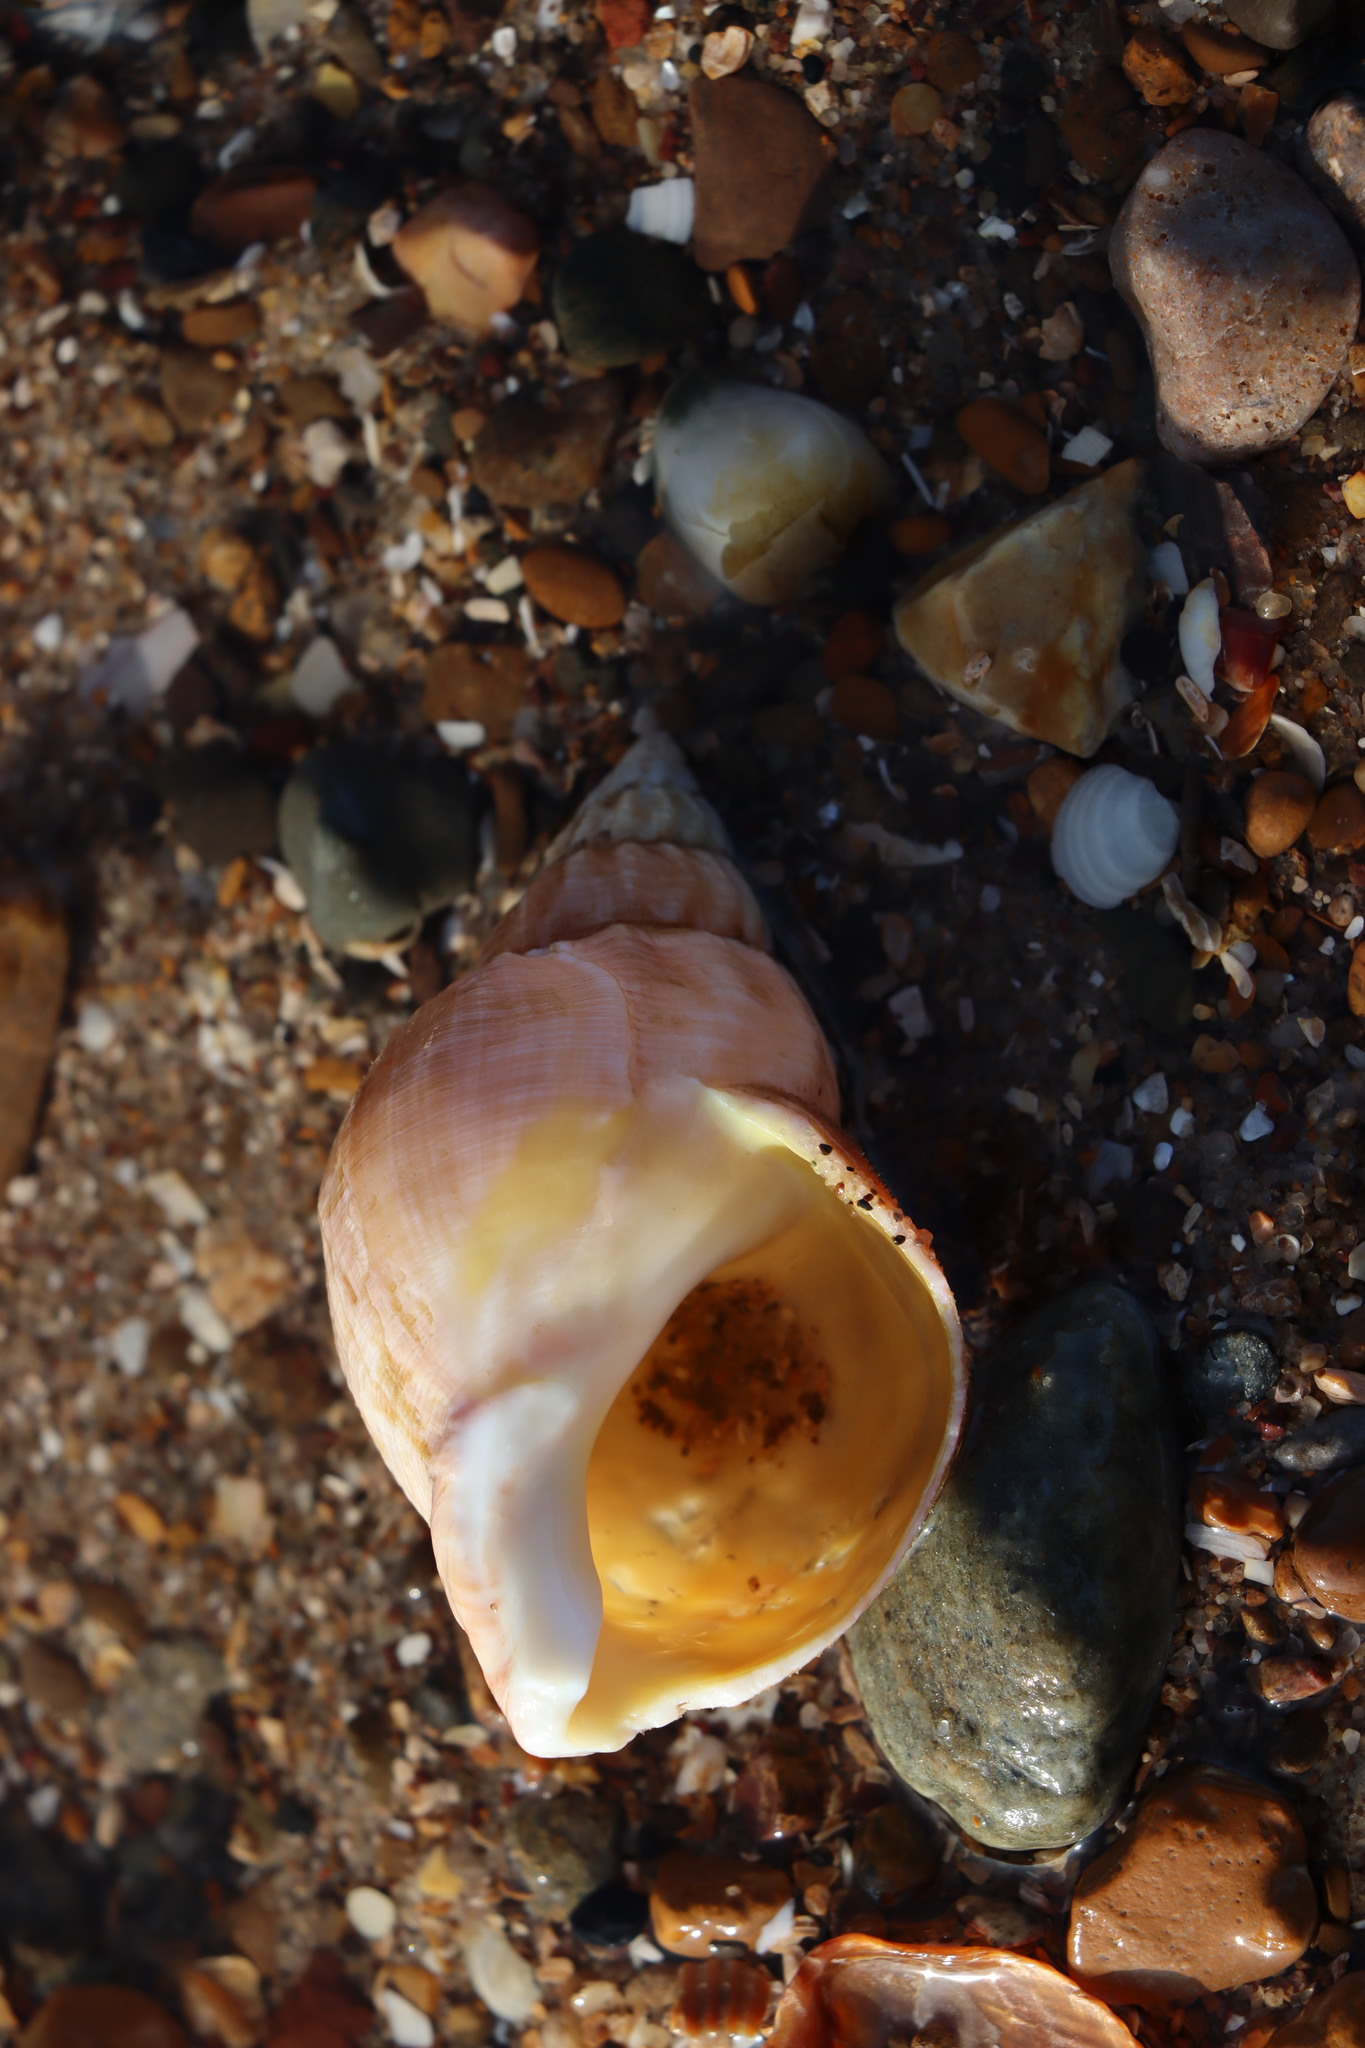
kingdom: Animalia
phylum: Mollusca
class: Gastropoda
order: Neogastropoda
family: Buccinidae
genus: Buccinum
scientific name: Buccinum undatum
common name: Common whelk
